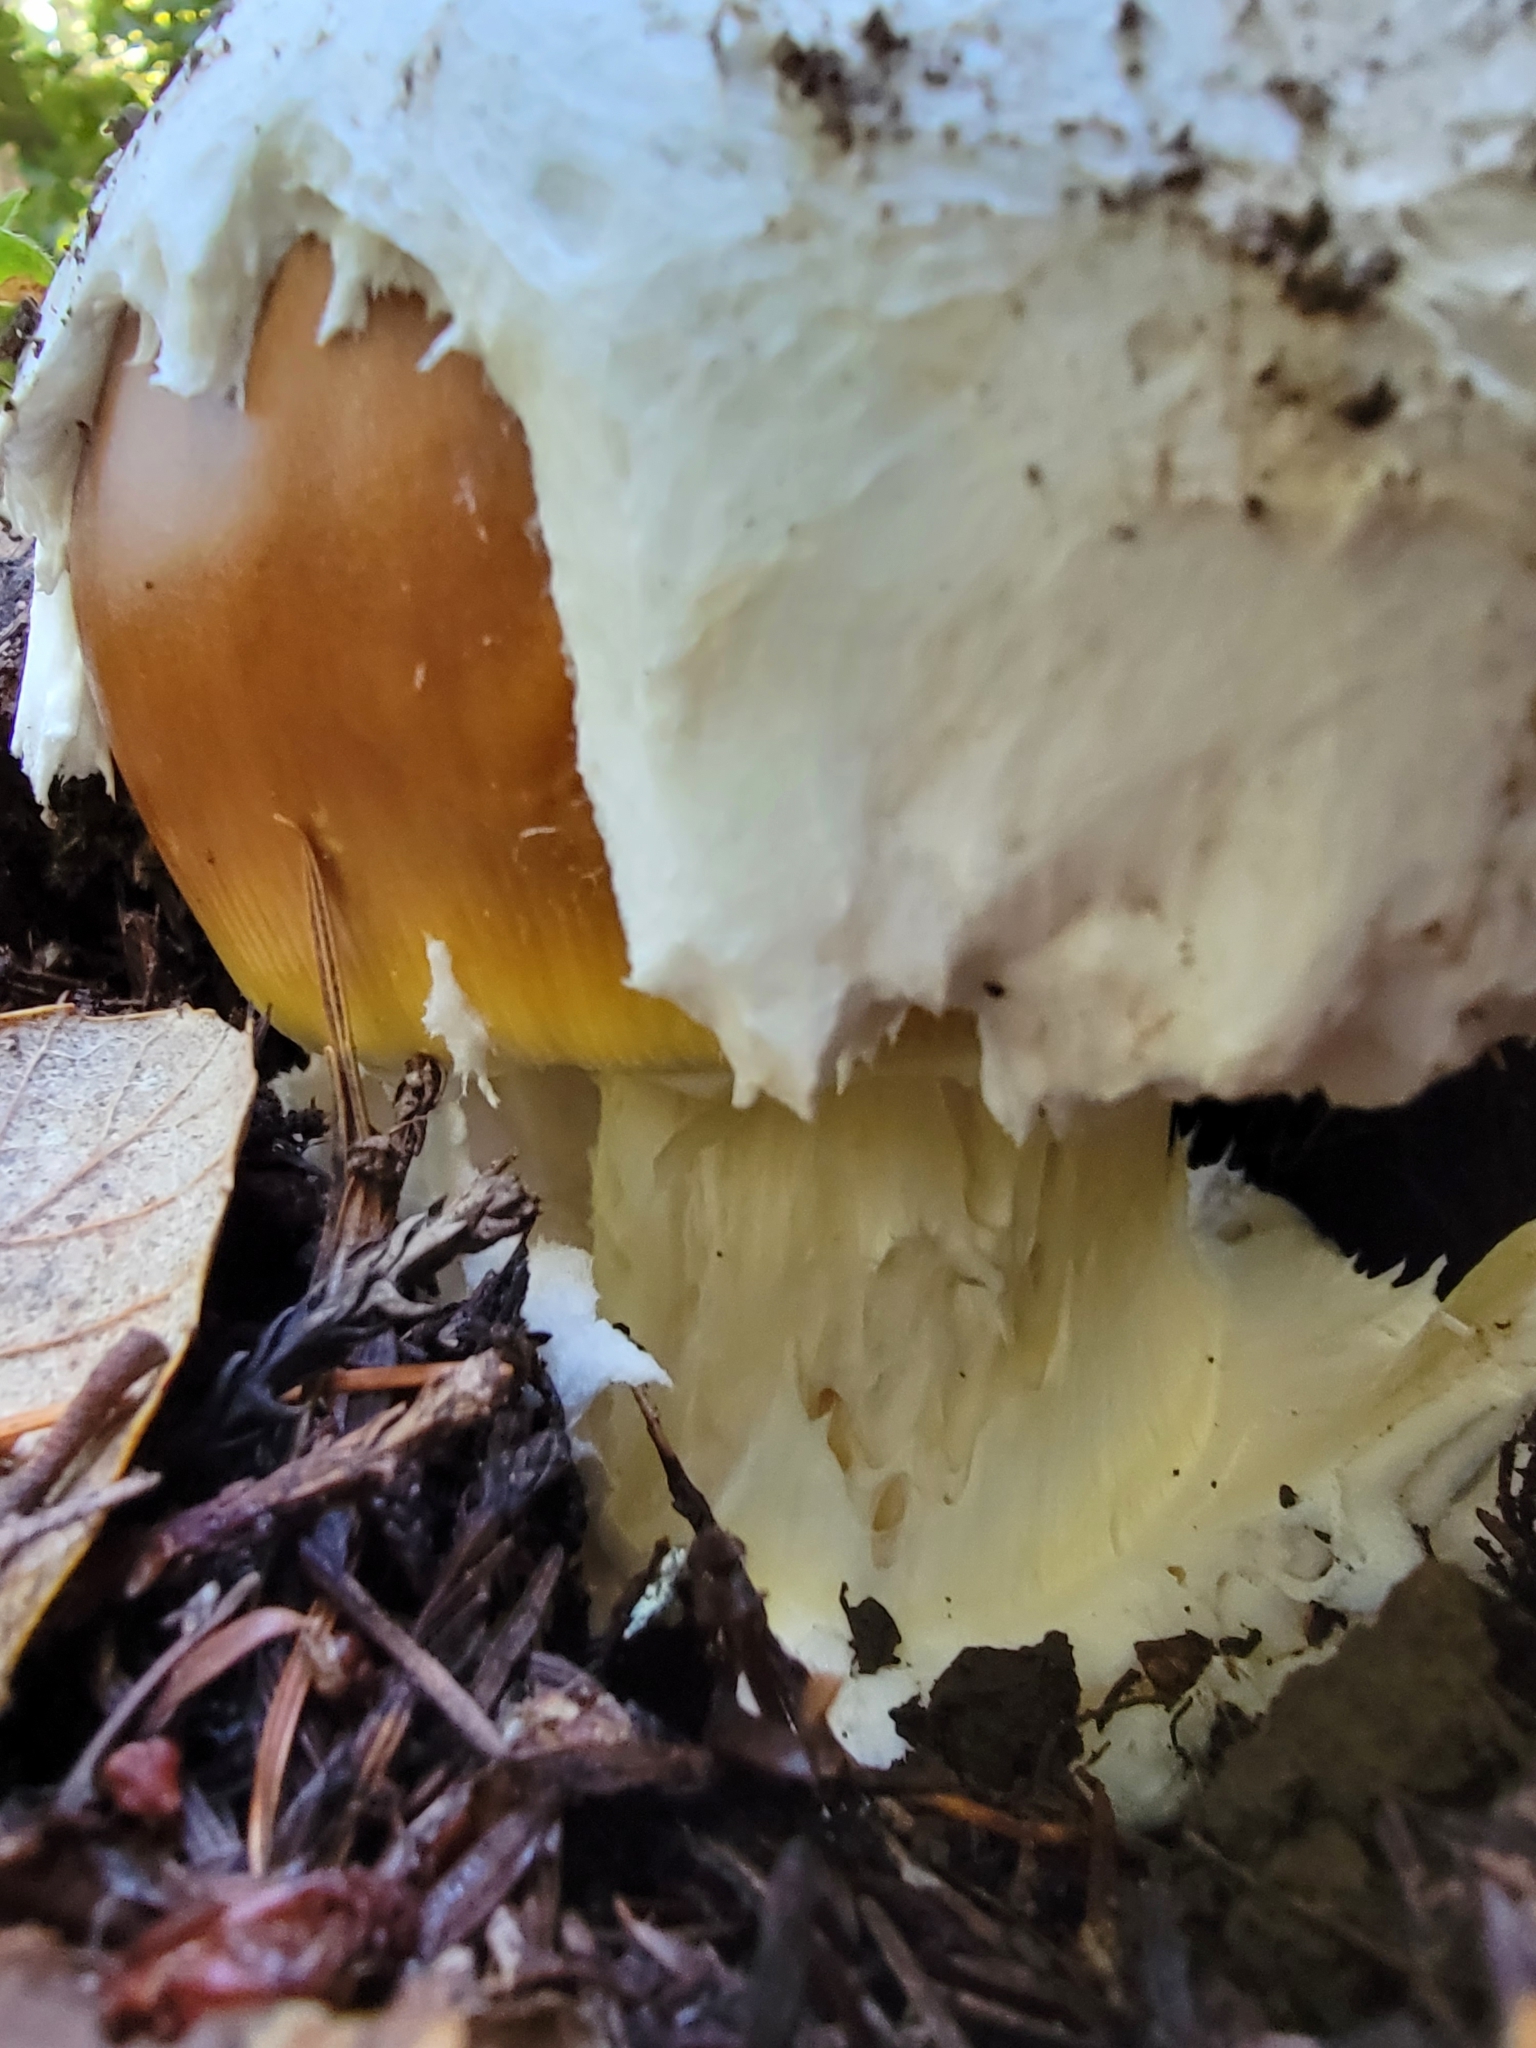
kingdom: Fungi
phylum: Basidiomycota
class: Agaricomycetes
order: Agaricales
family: Amanitaceae
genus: Amanita
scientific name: Amanita calyptroderma
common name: Coccora
